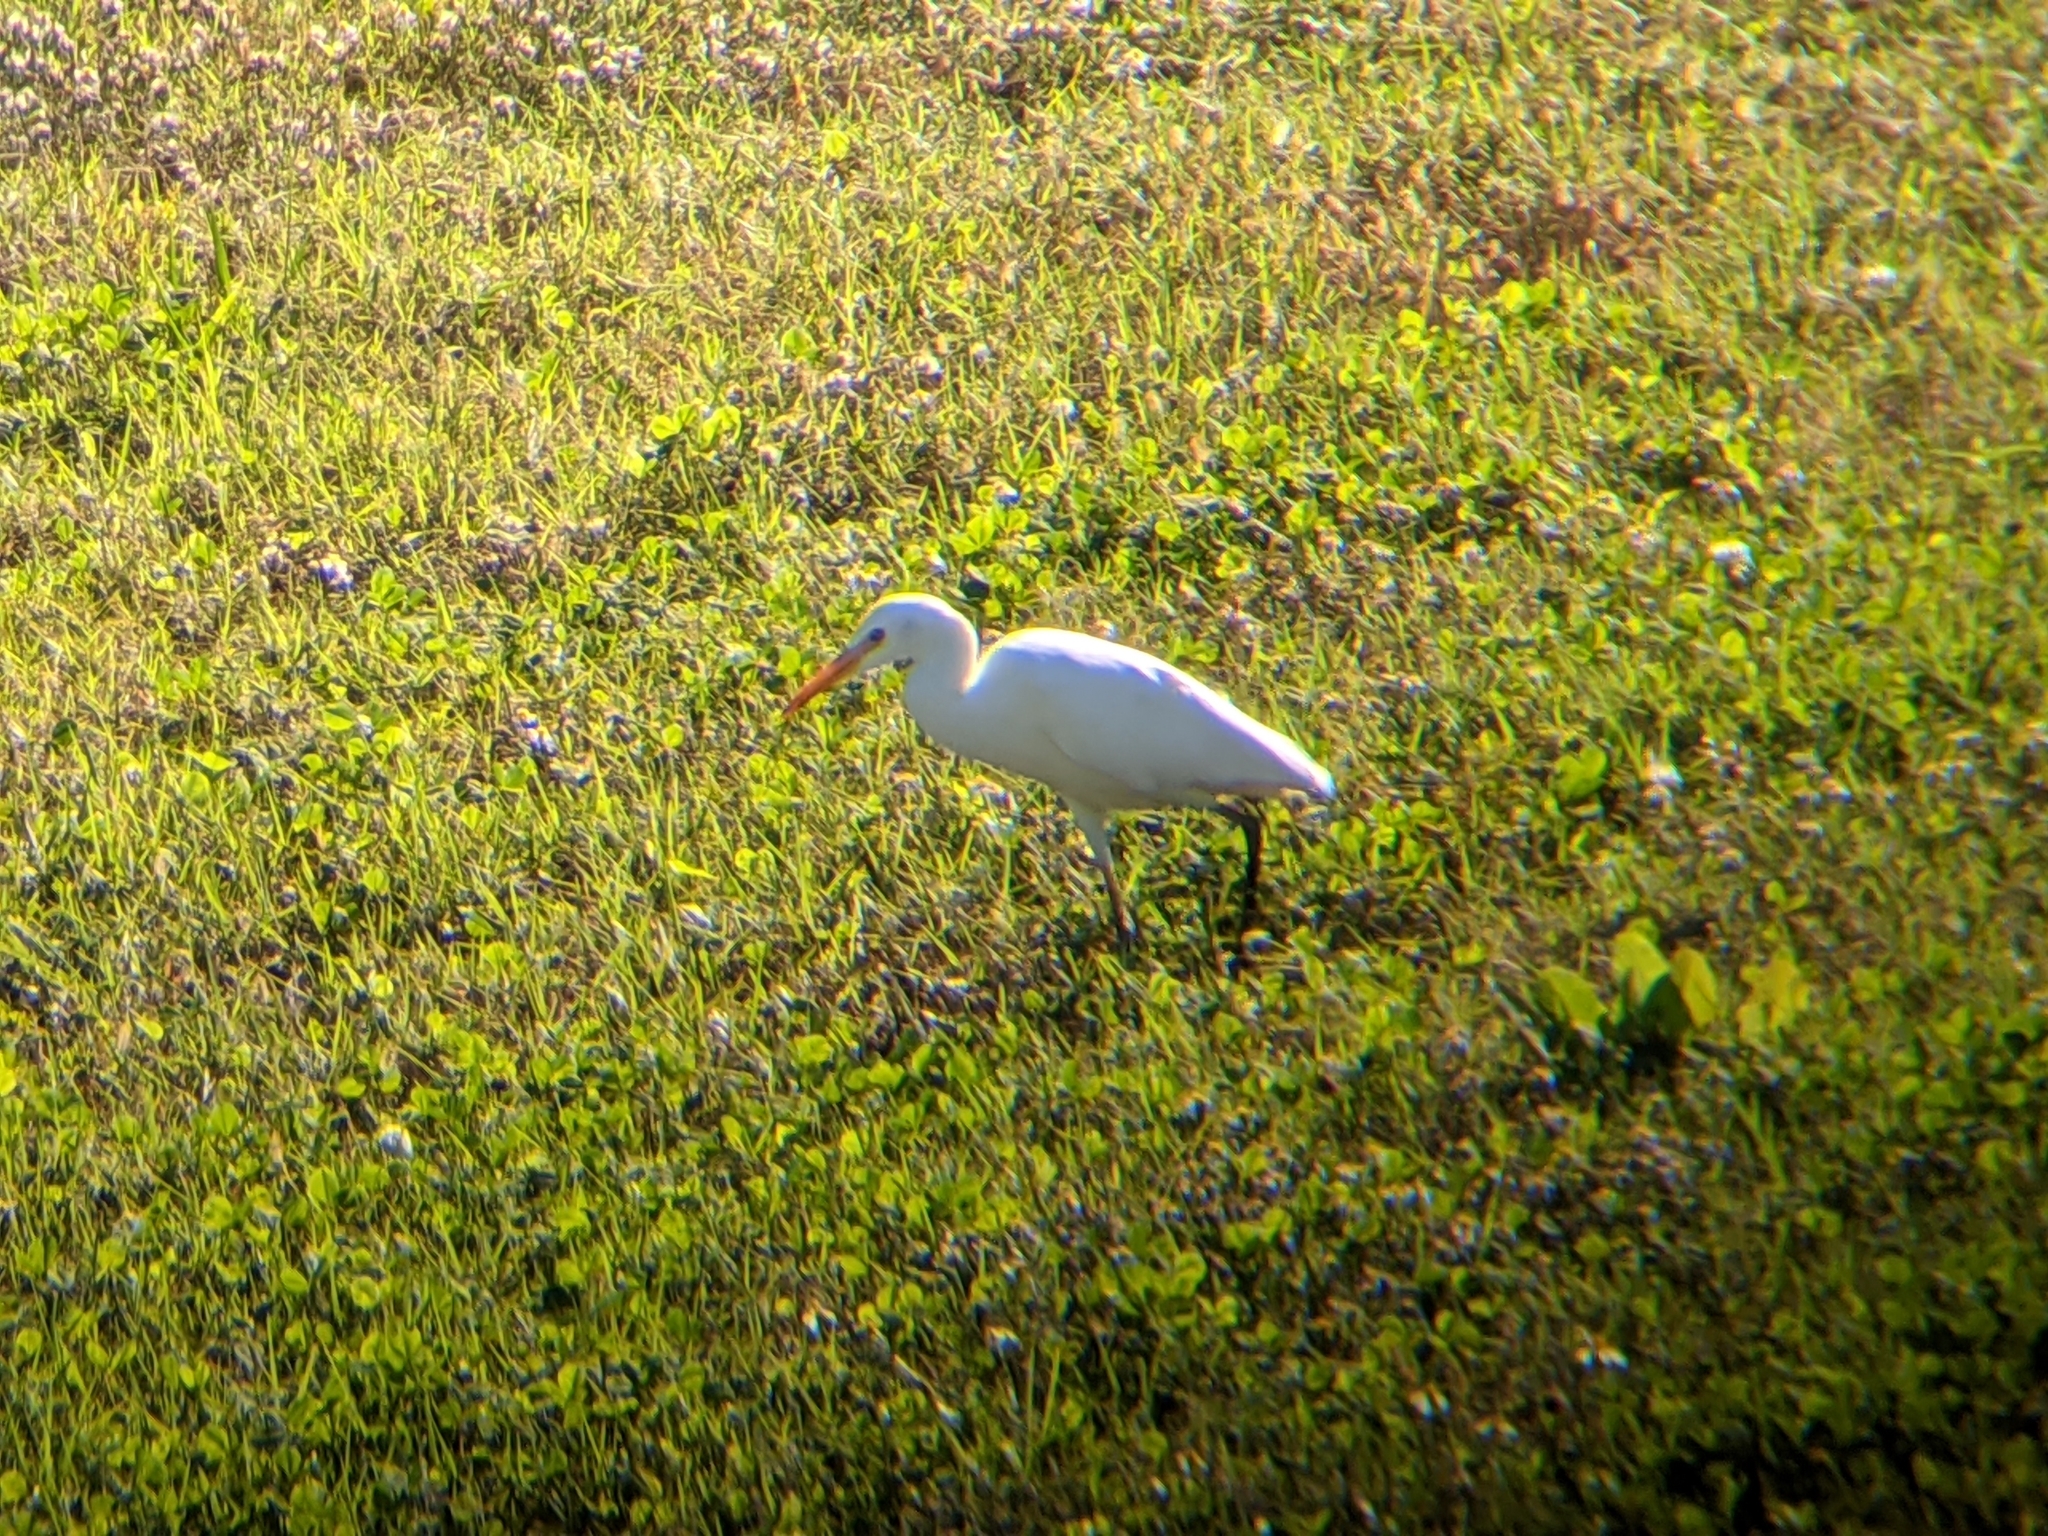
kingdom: Animalia
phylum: Chordata
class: Aves
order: Pelecaniformes
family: Ardeidae
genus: Bubulcus
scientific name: Bubulcus ibis
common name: Cattle egret
